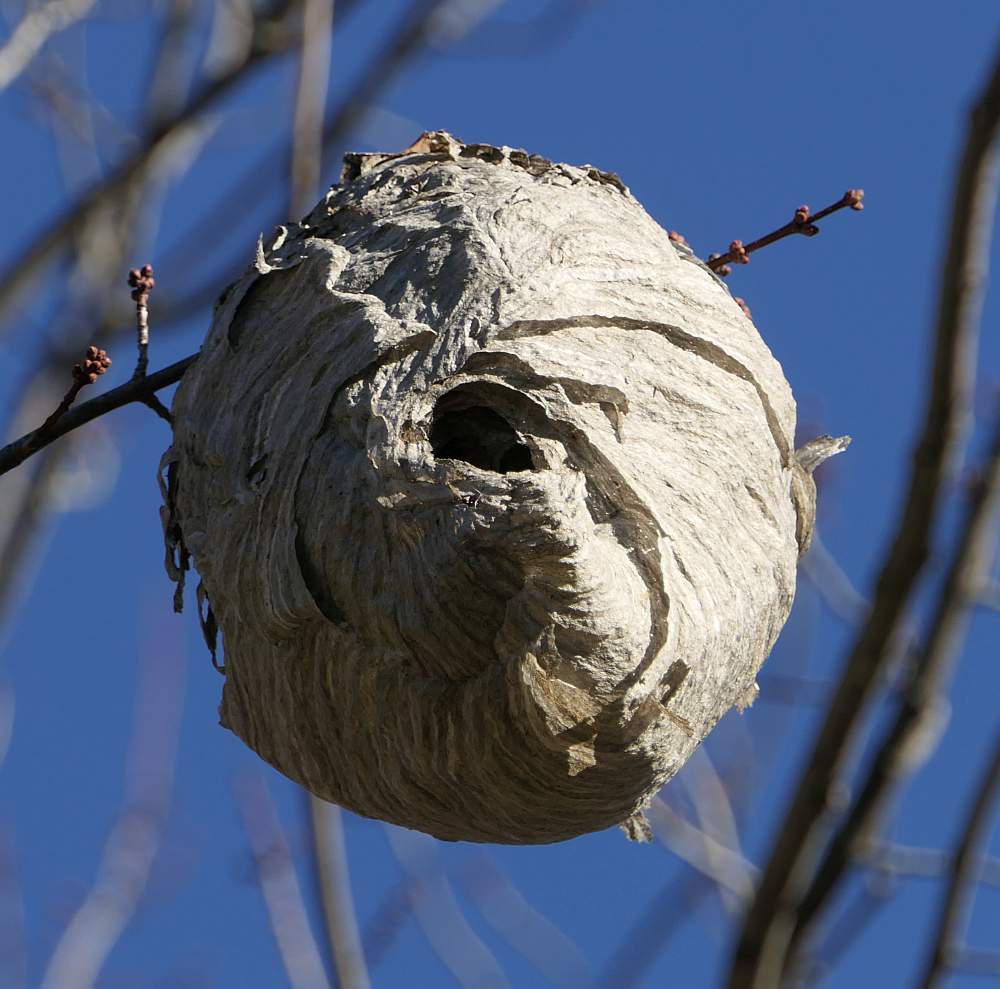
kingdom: Animalia
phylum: Arthropoda
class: Insecta
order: Hymenoptera
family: Vespidae
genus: Dolichovespula
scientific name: Dolichovespula maculata
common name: Bald-faced hornet
